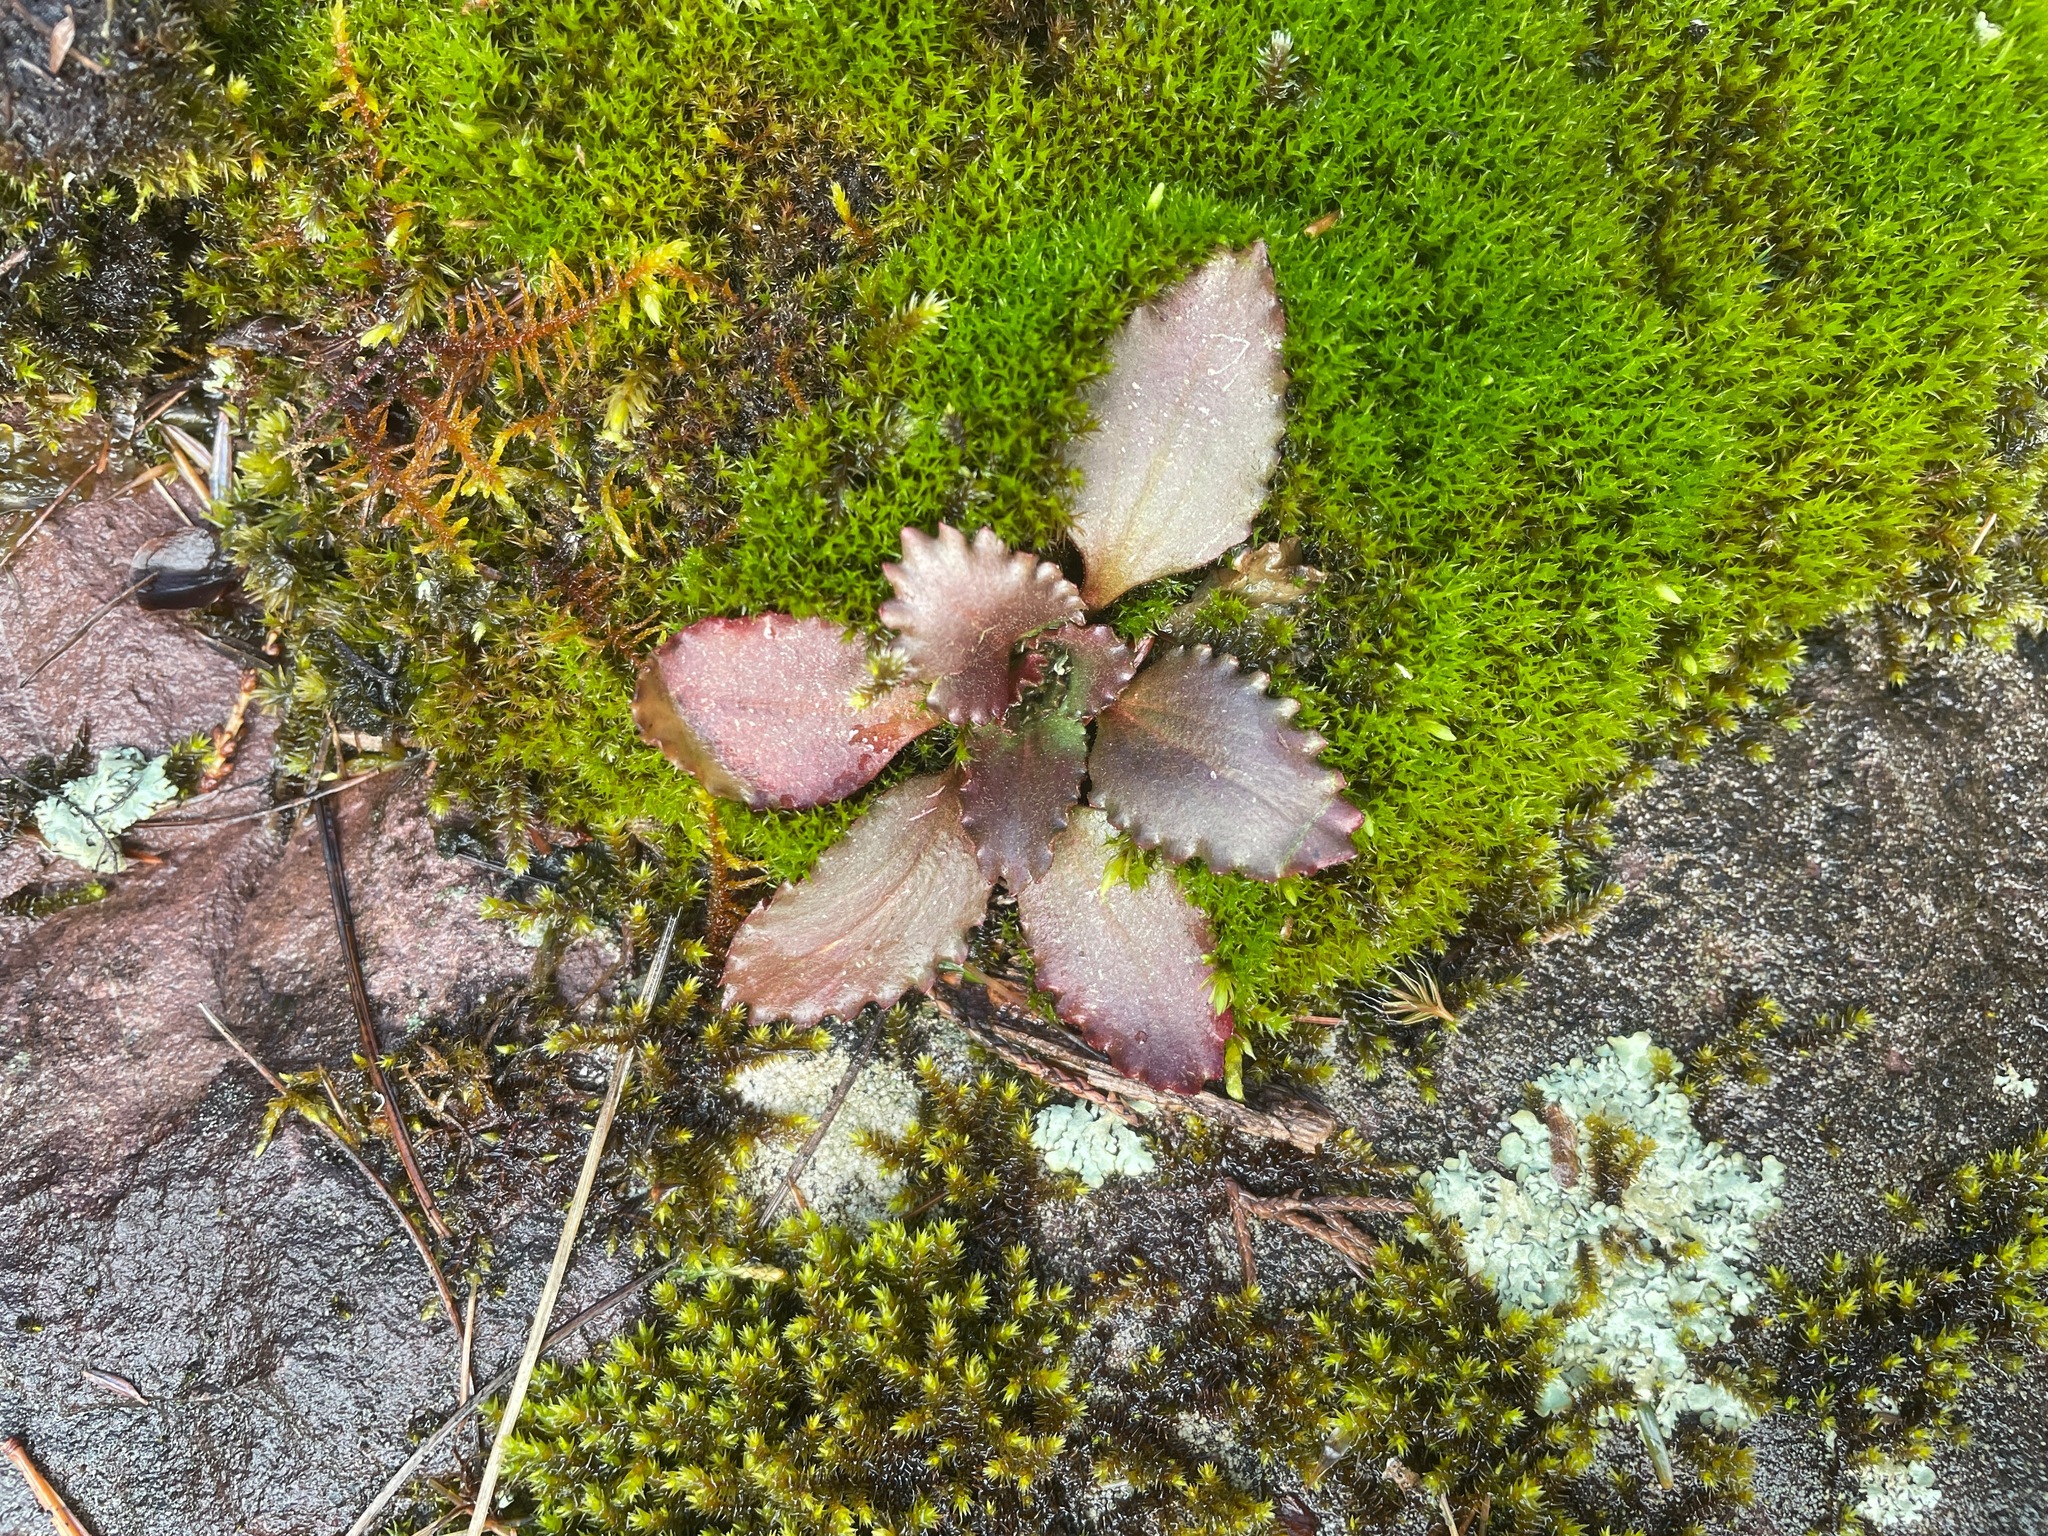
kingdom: Plantae
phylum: Tracheophyta
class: Magnoliopsida
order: Saxifragales
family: Saxifragaceae
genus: Micranthes
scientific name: Micranthes virginiensis
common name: Early saxifrage
